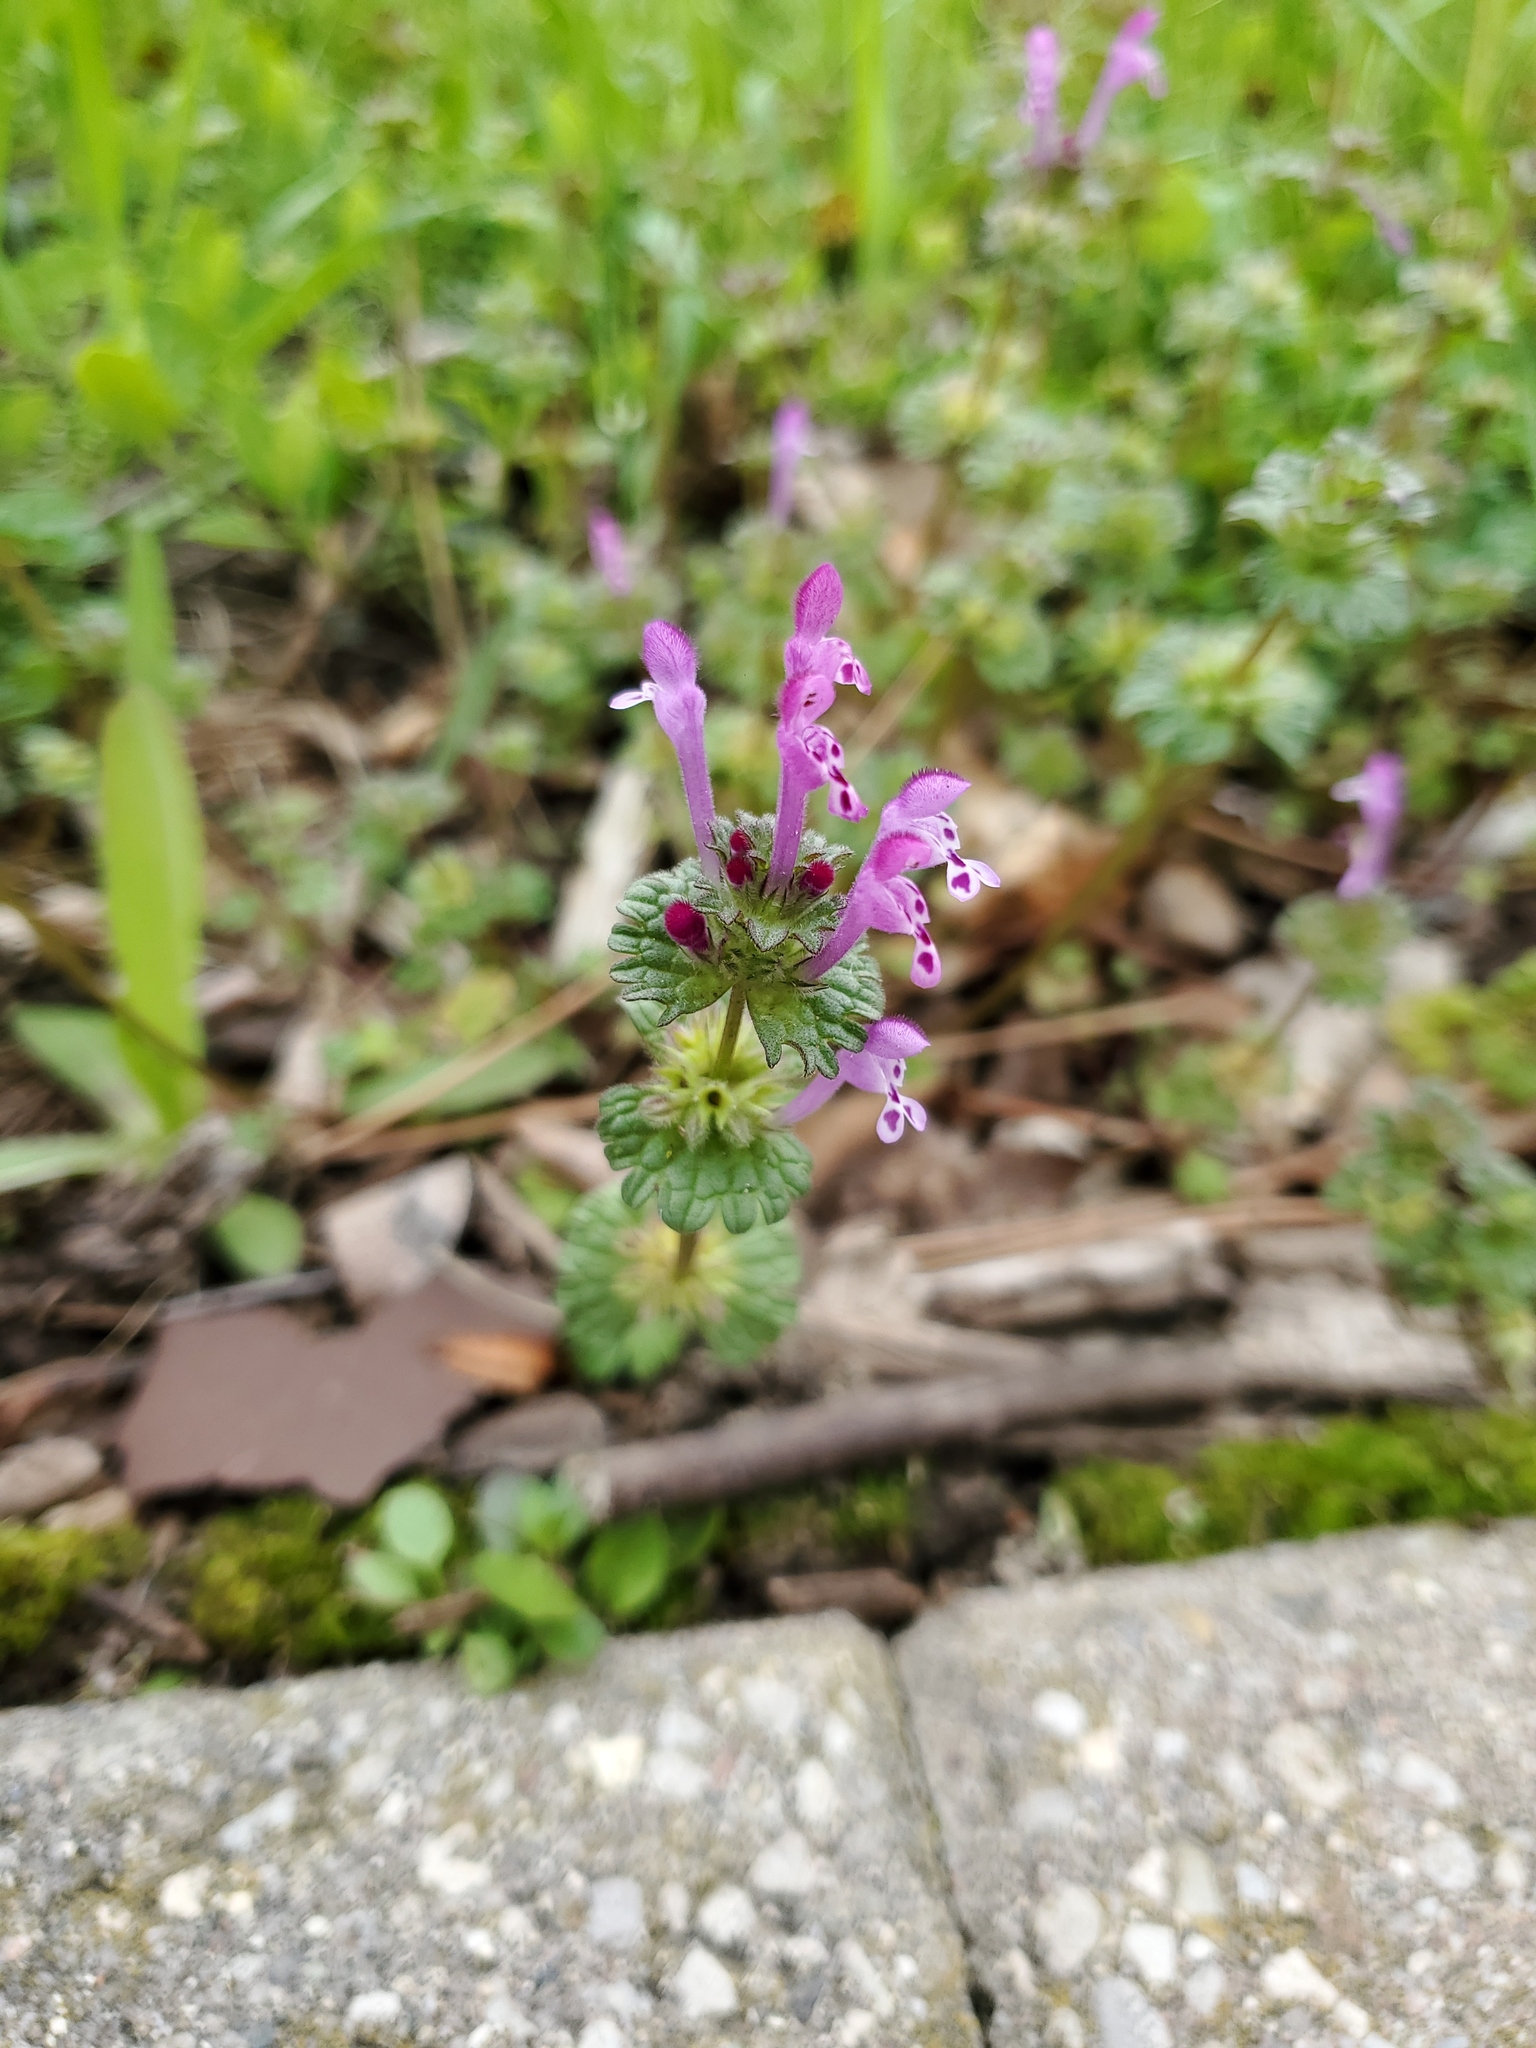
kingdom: Plantae
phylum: Tracheophyta
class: Magnoliopsida
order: Lamiales
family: Lamiaceae
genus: Lamium
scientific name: Lamium amplexicaule
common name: Henbit dead-nettle
